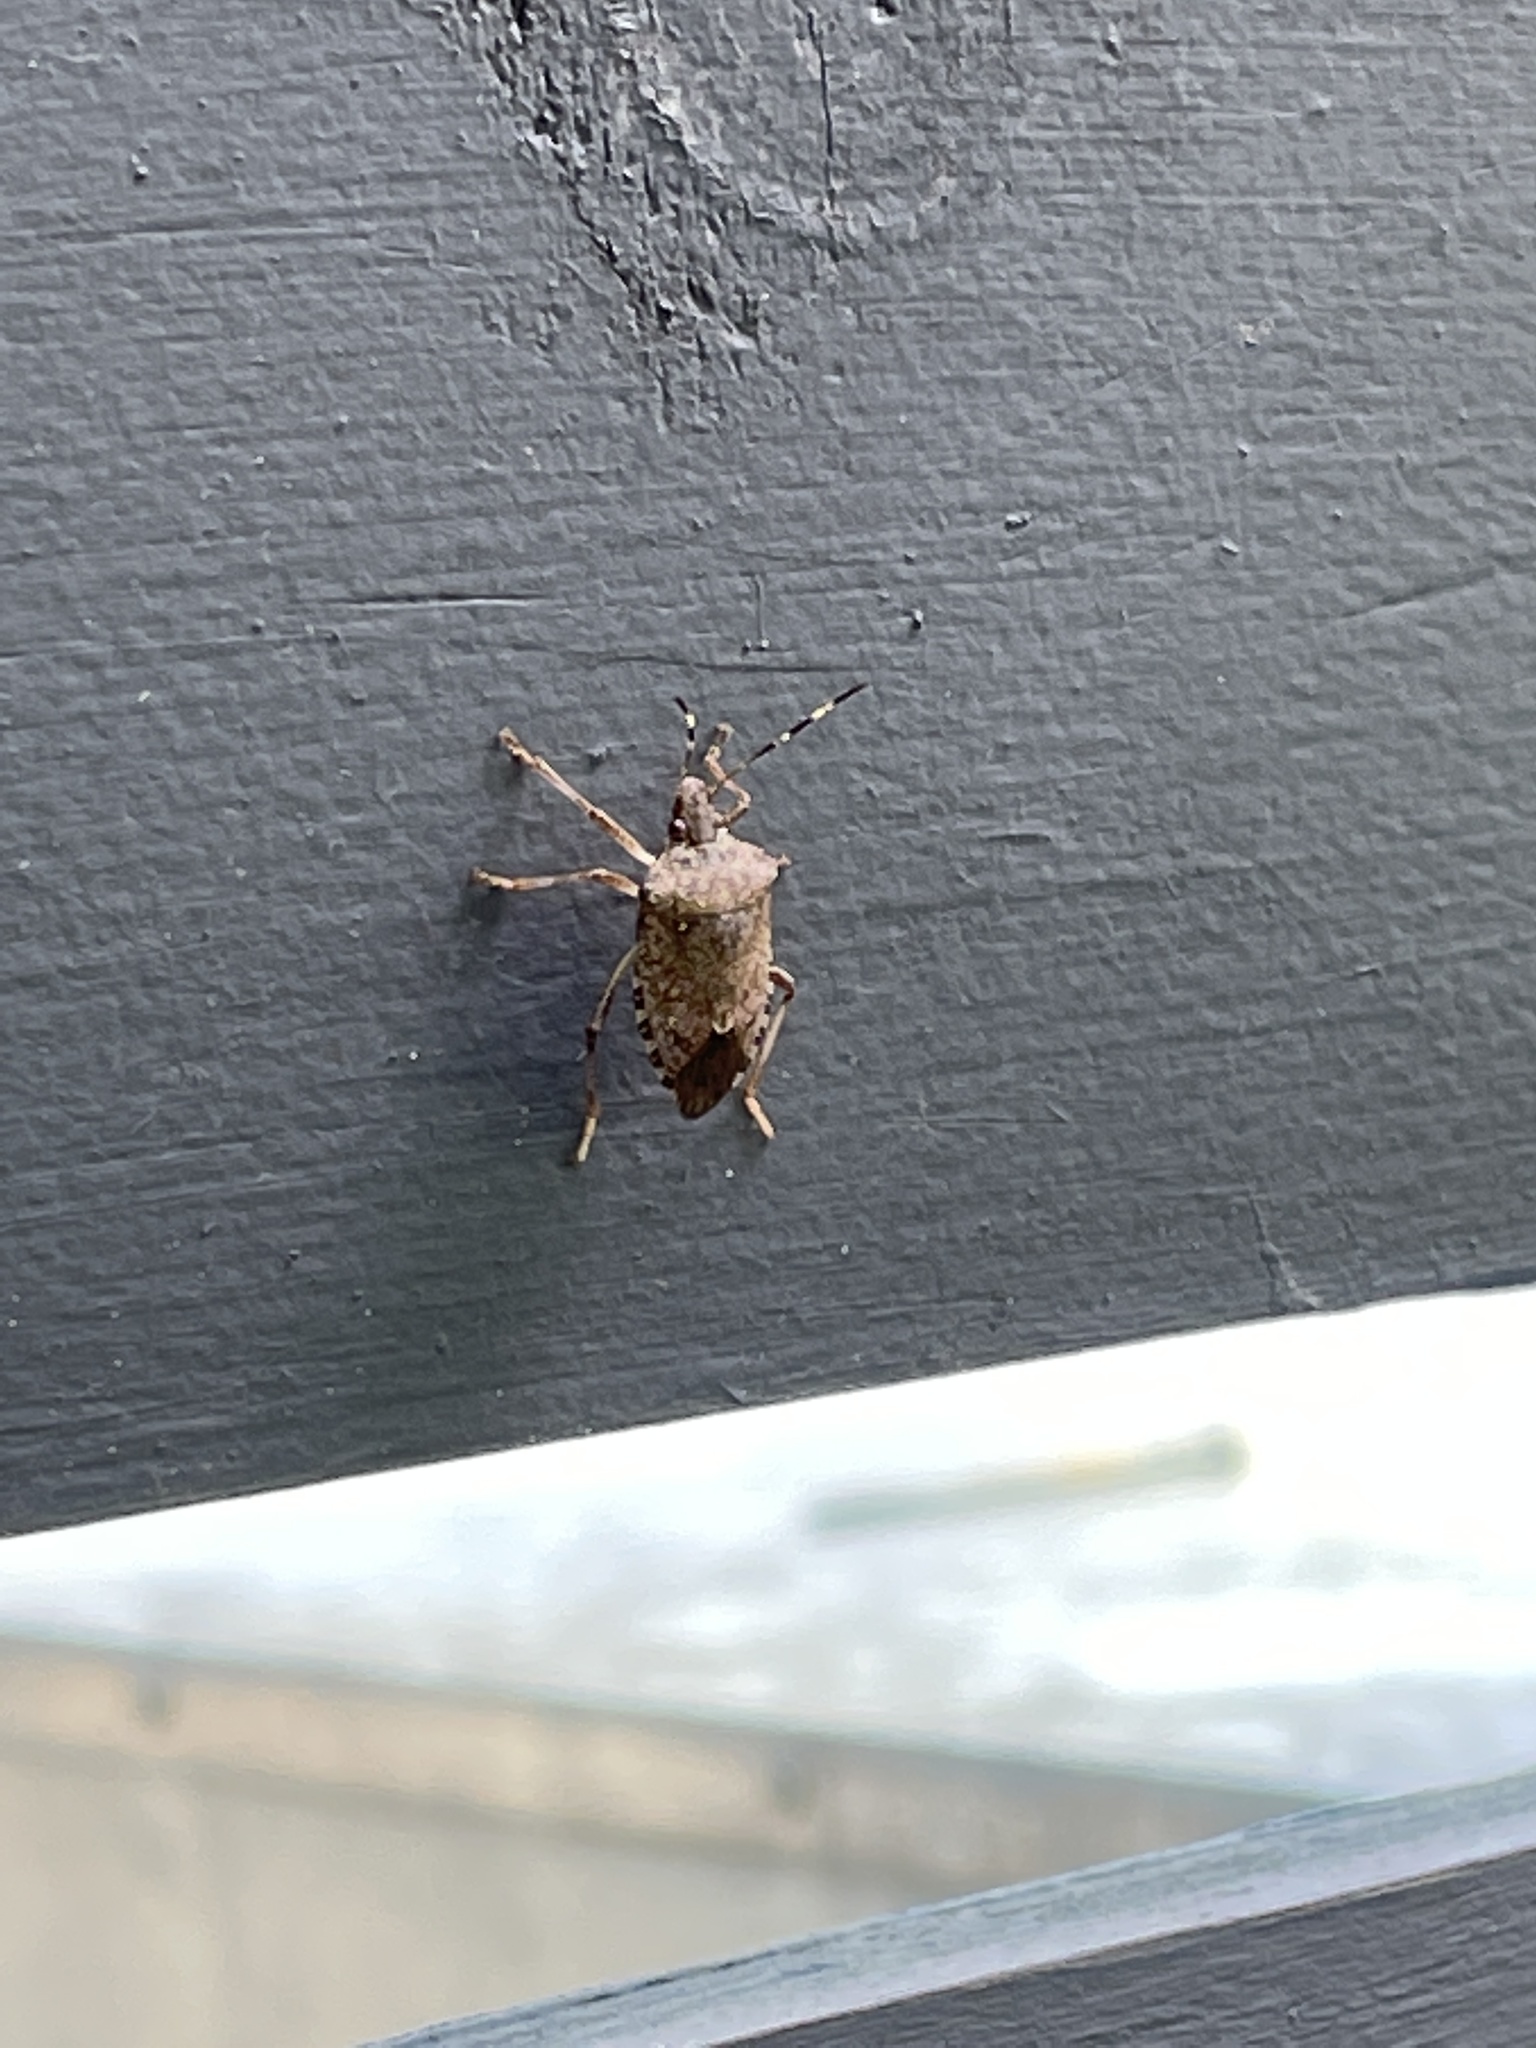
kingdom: Animalia
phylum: Arthropoda
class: Insecta
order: Hemiptera
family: Pentatomidae
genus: Halyomorpha
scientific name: Halyomorpha halys
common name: Brown marmorated stink bug
